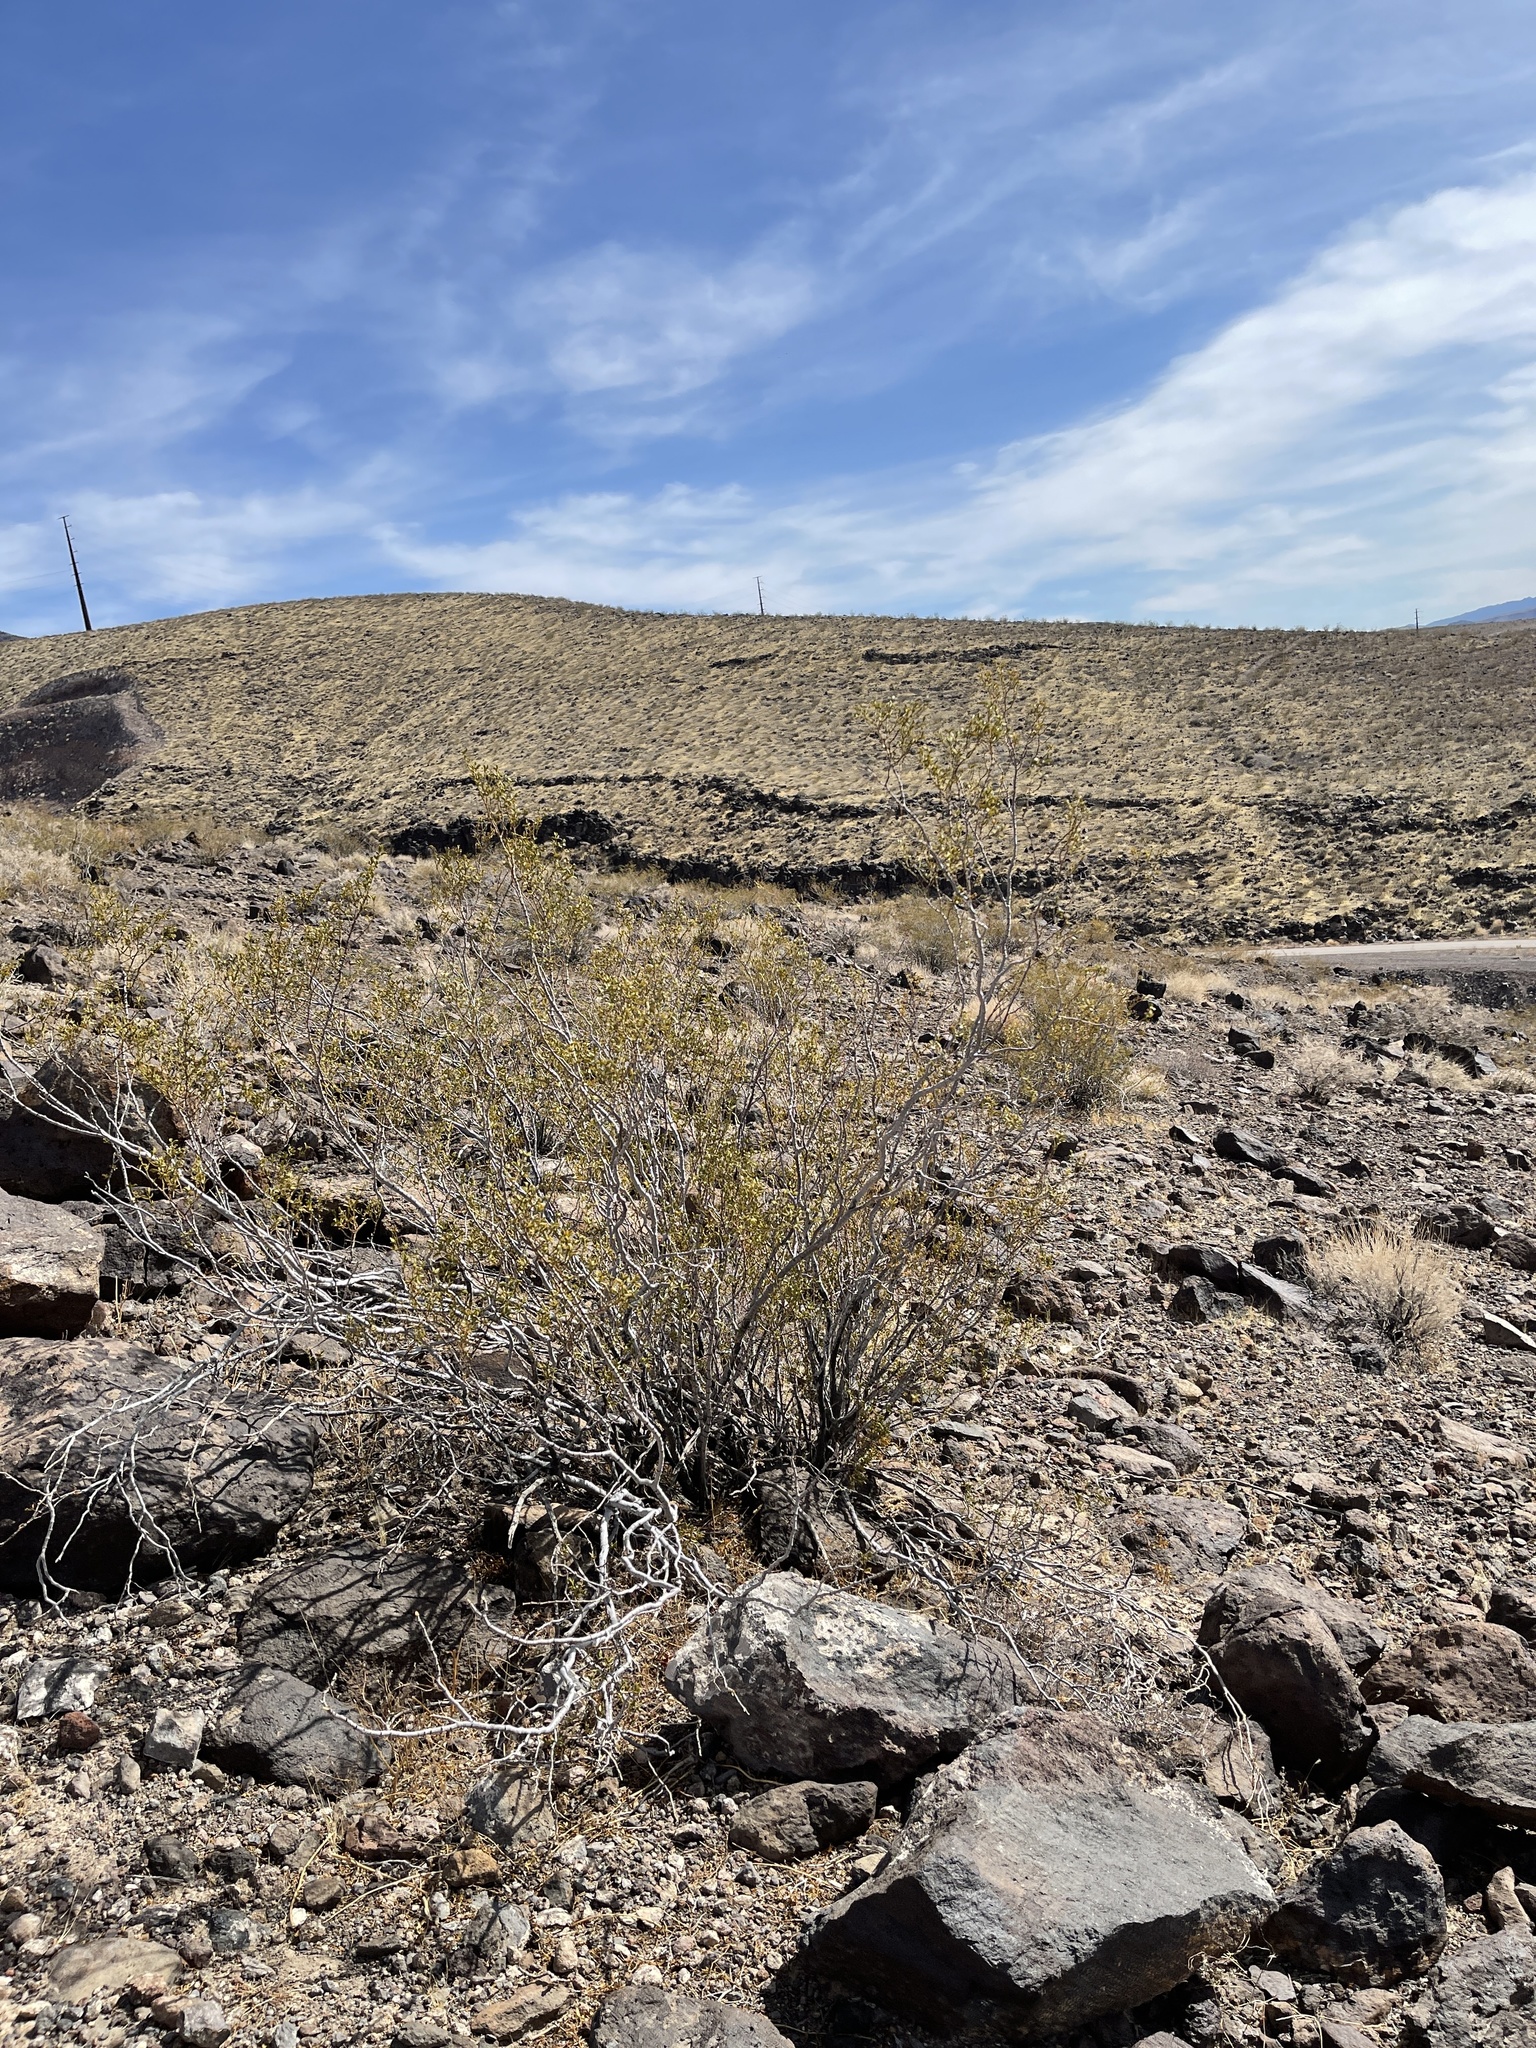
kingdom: Plantae
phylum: Tracheophyta
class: Magnoliopsida
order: Zygophyllales
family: Zygophyllaceae
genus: Larrea
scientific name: Larrea tridentata
